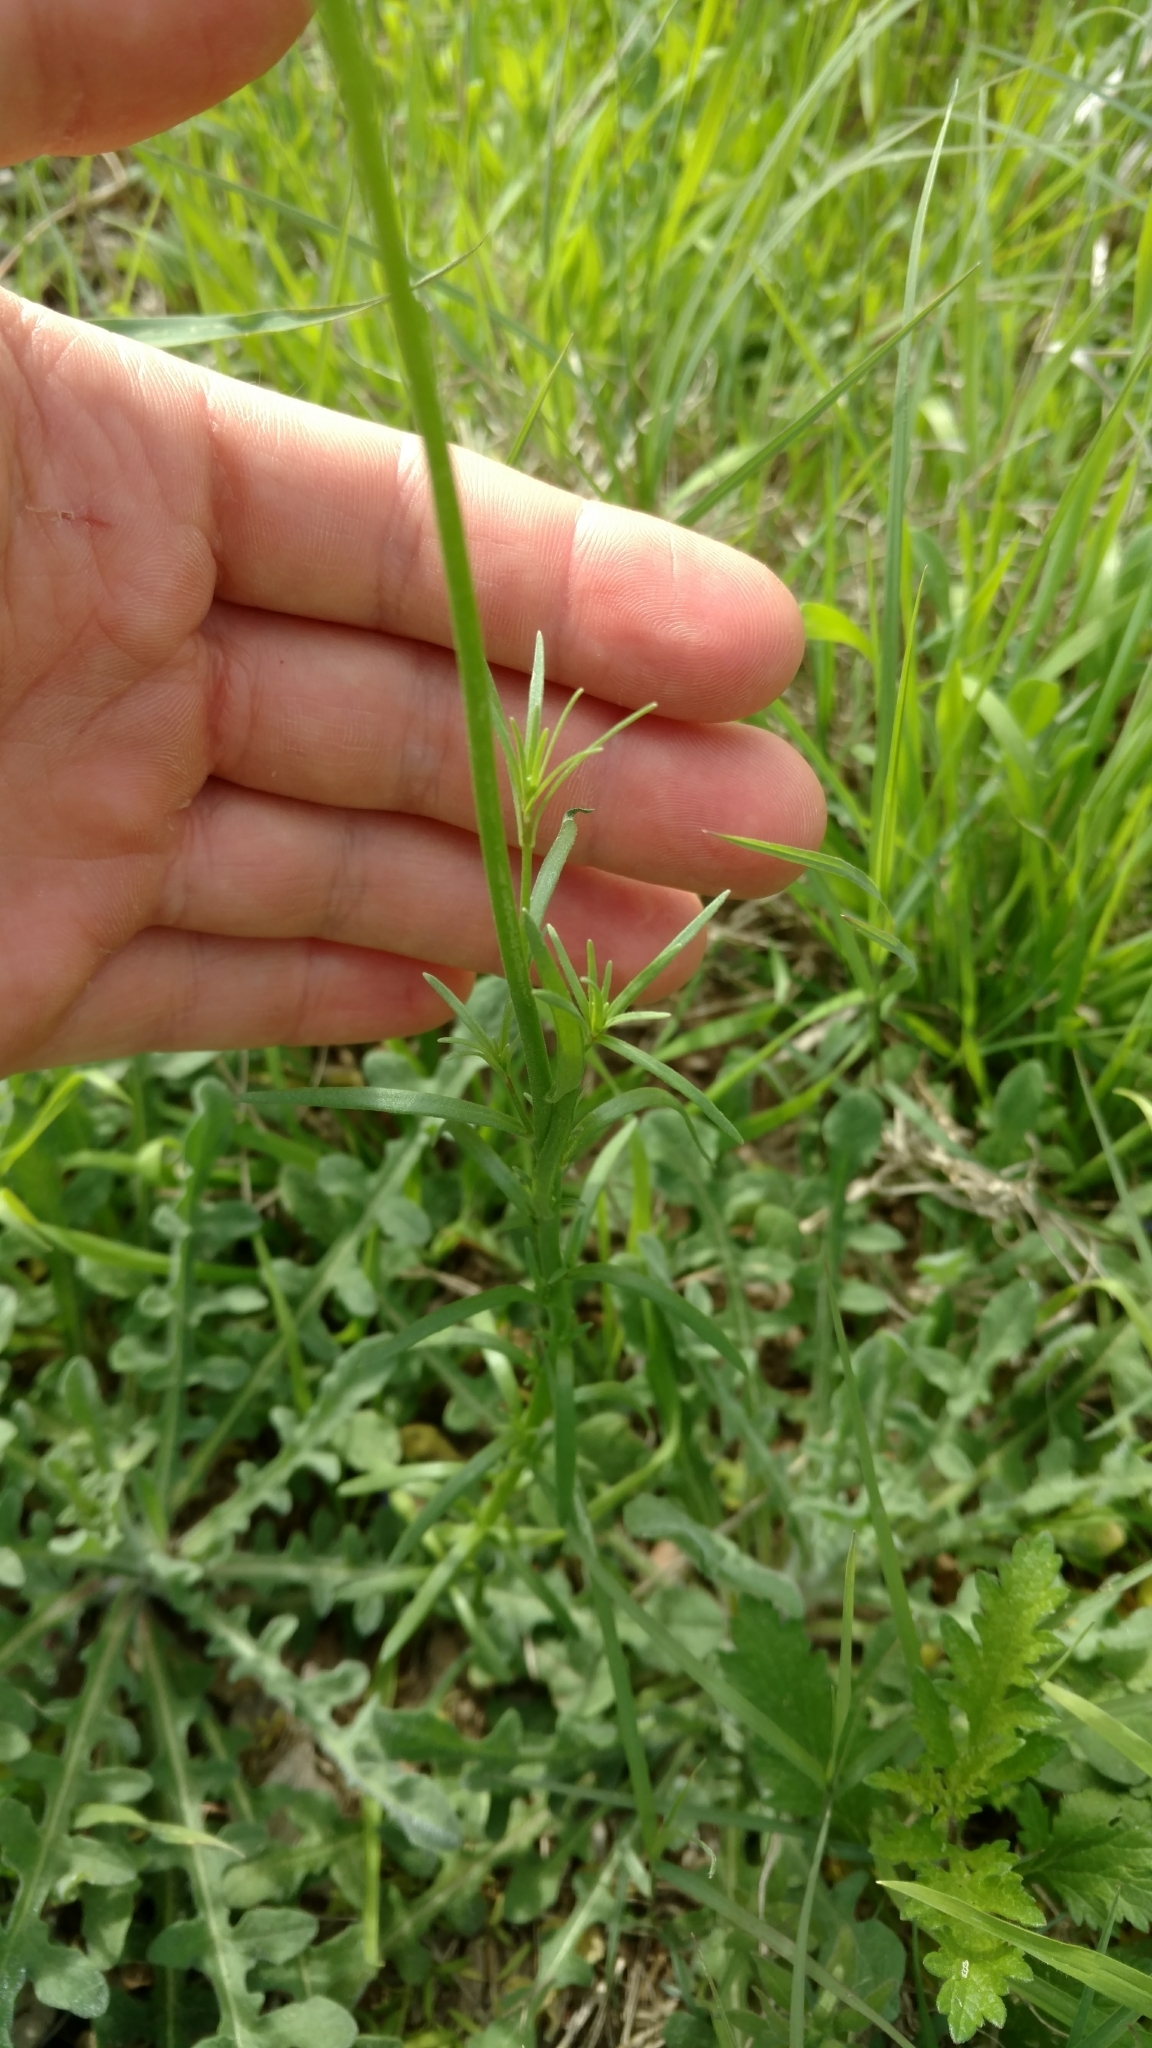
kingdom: Plantae
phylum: Tracheophyta
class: Magnoliopsida
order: Lamiales
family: Plantaginaceae
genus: Nuttallanthus
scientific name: Nuttallanthus texanus
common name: Texas toadflax
